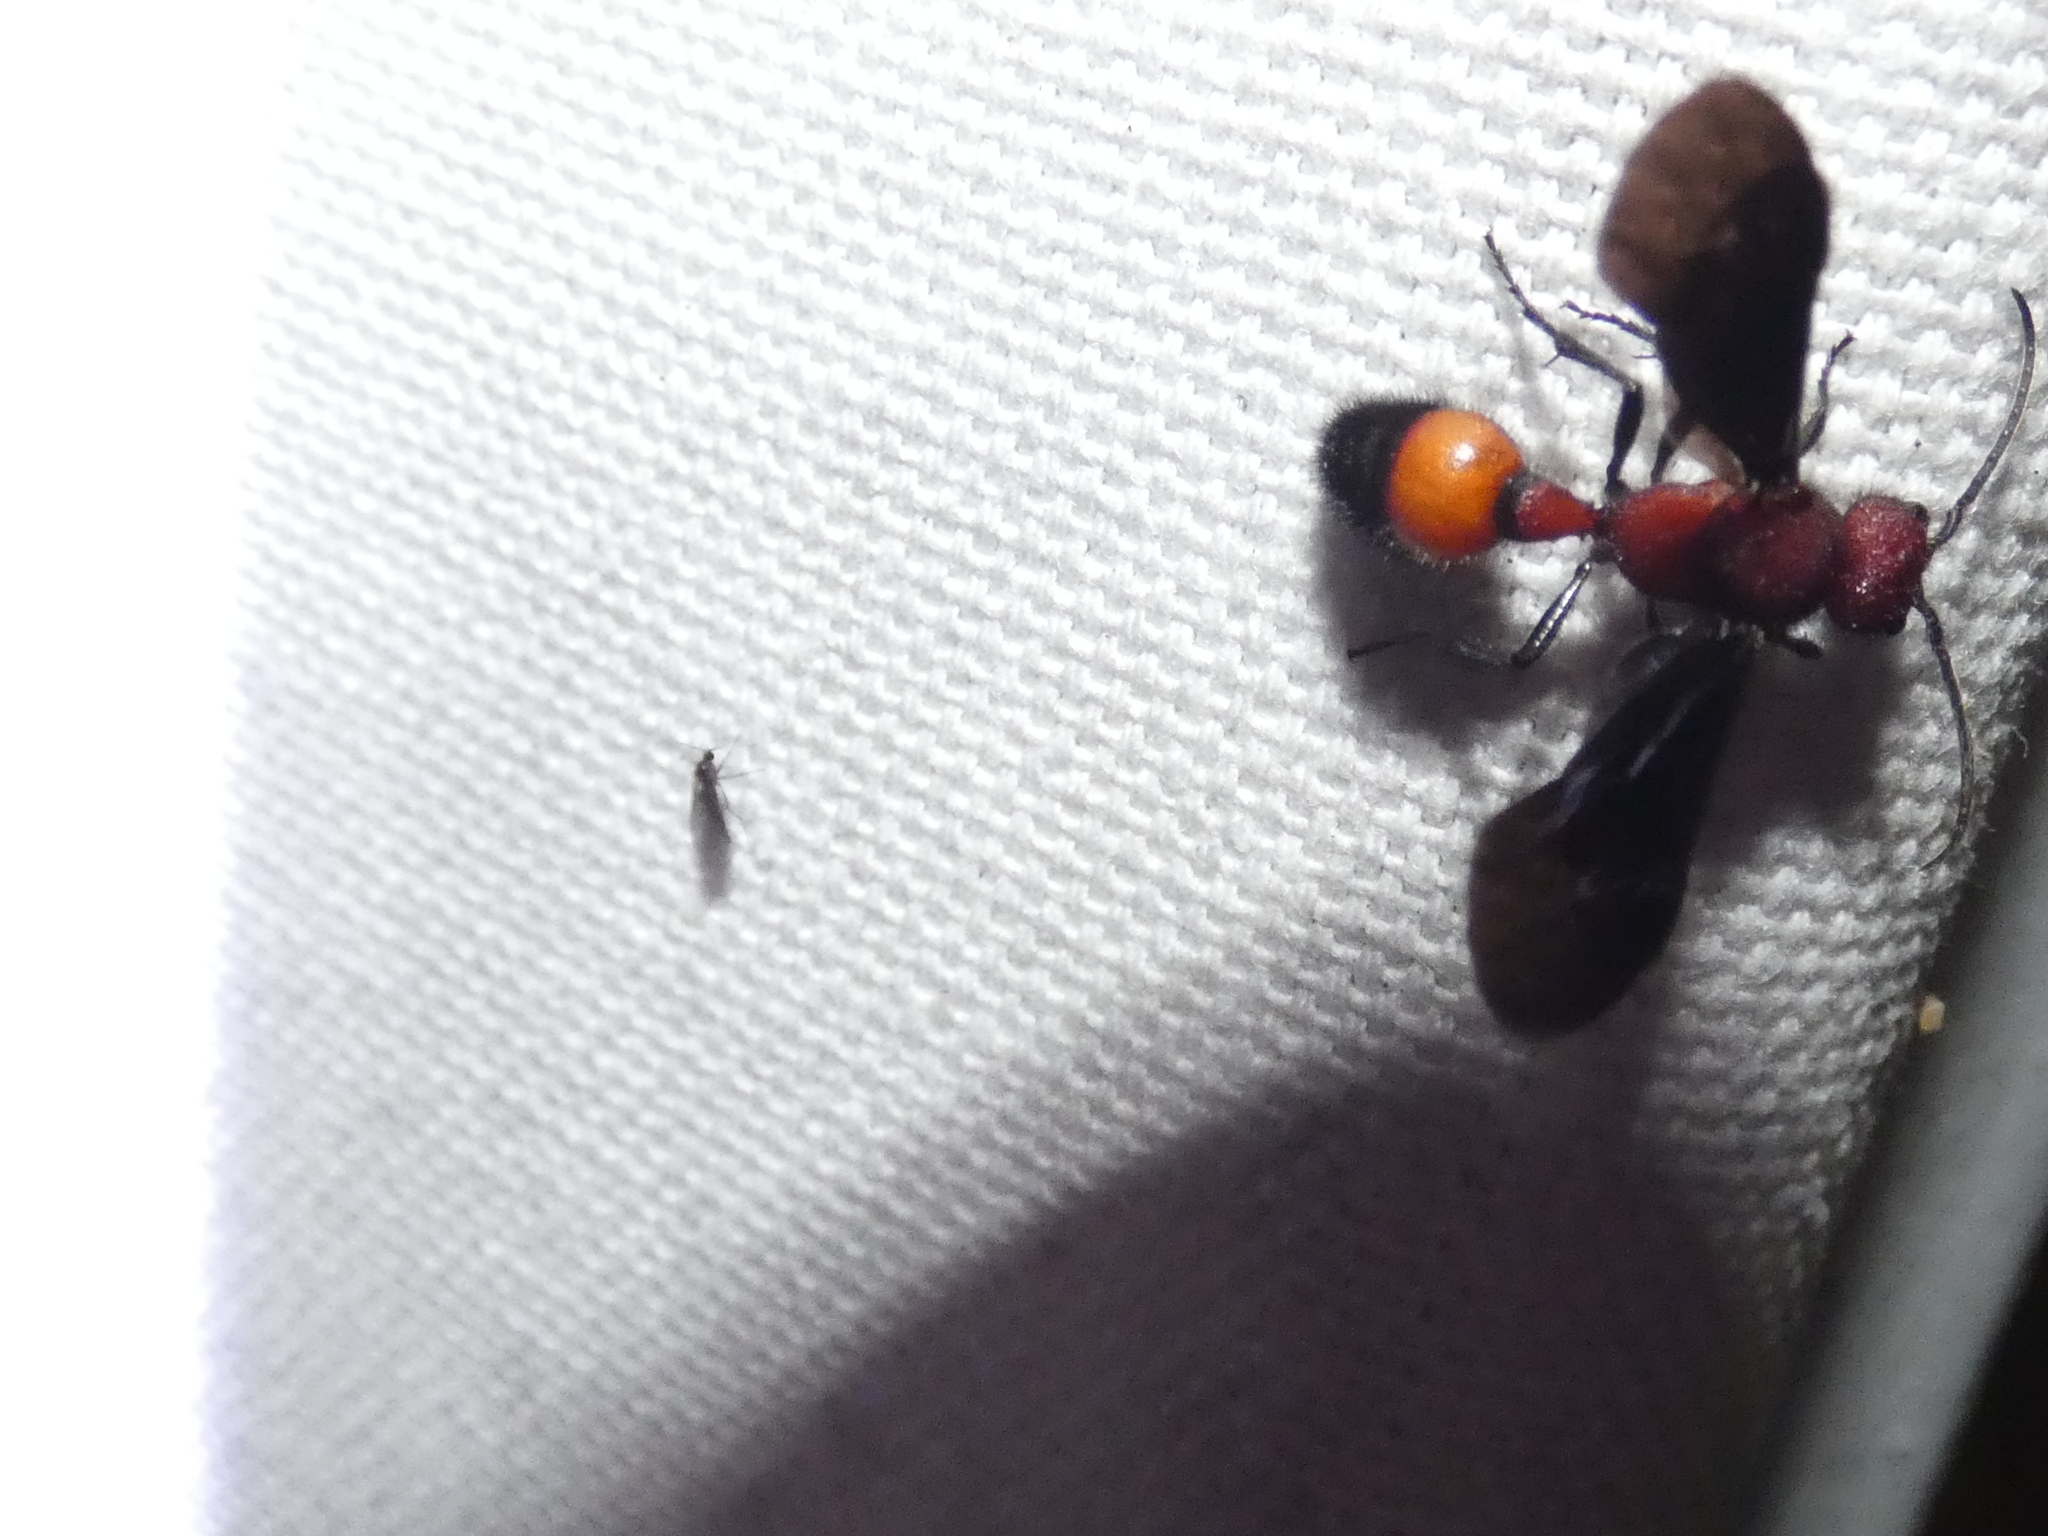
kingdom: Animalia
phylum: Arthropoda
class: Insecta
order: Hymenoptera
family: Mutillidae
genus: Sphaeropthalma
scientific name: Sphaeropthalma
